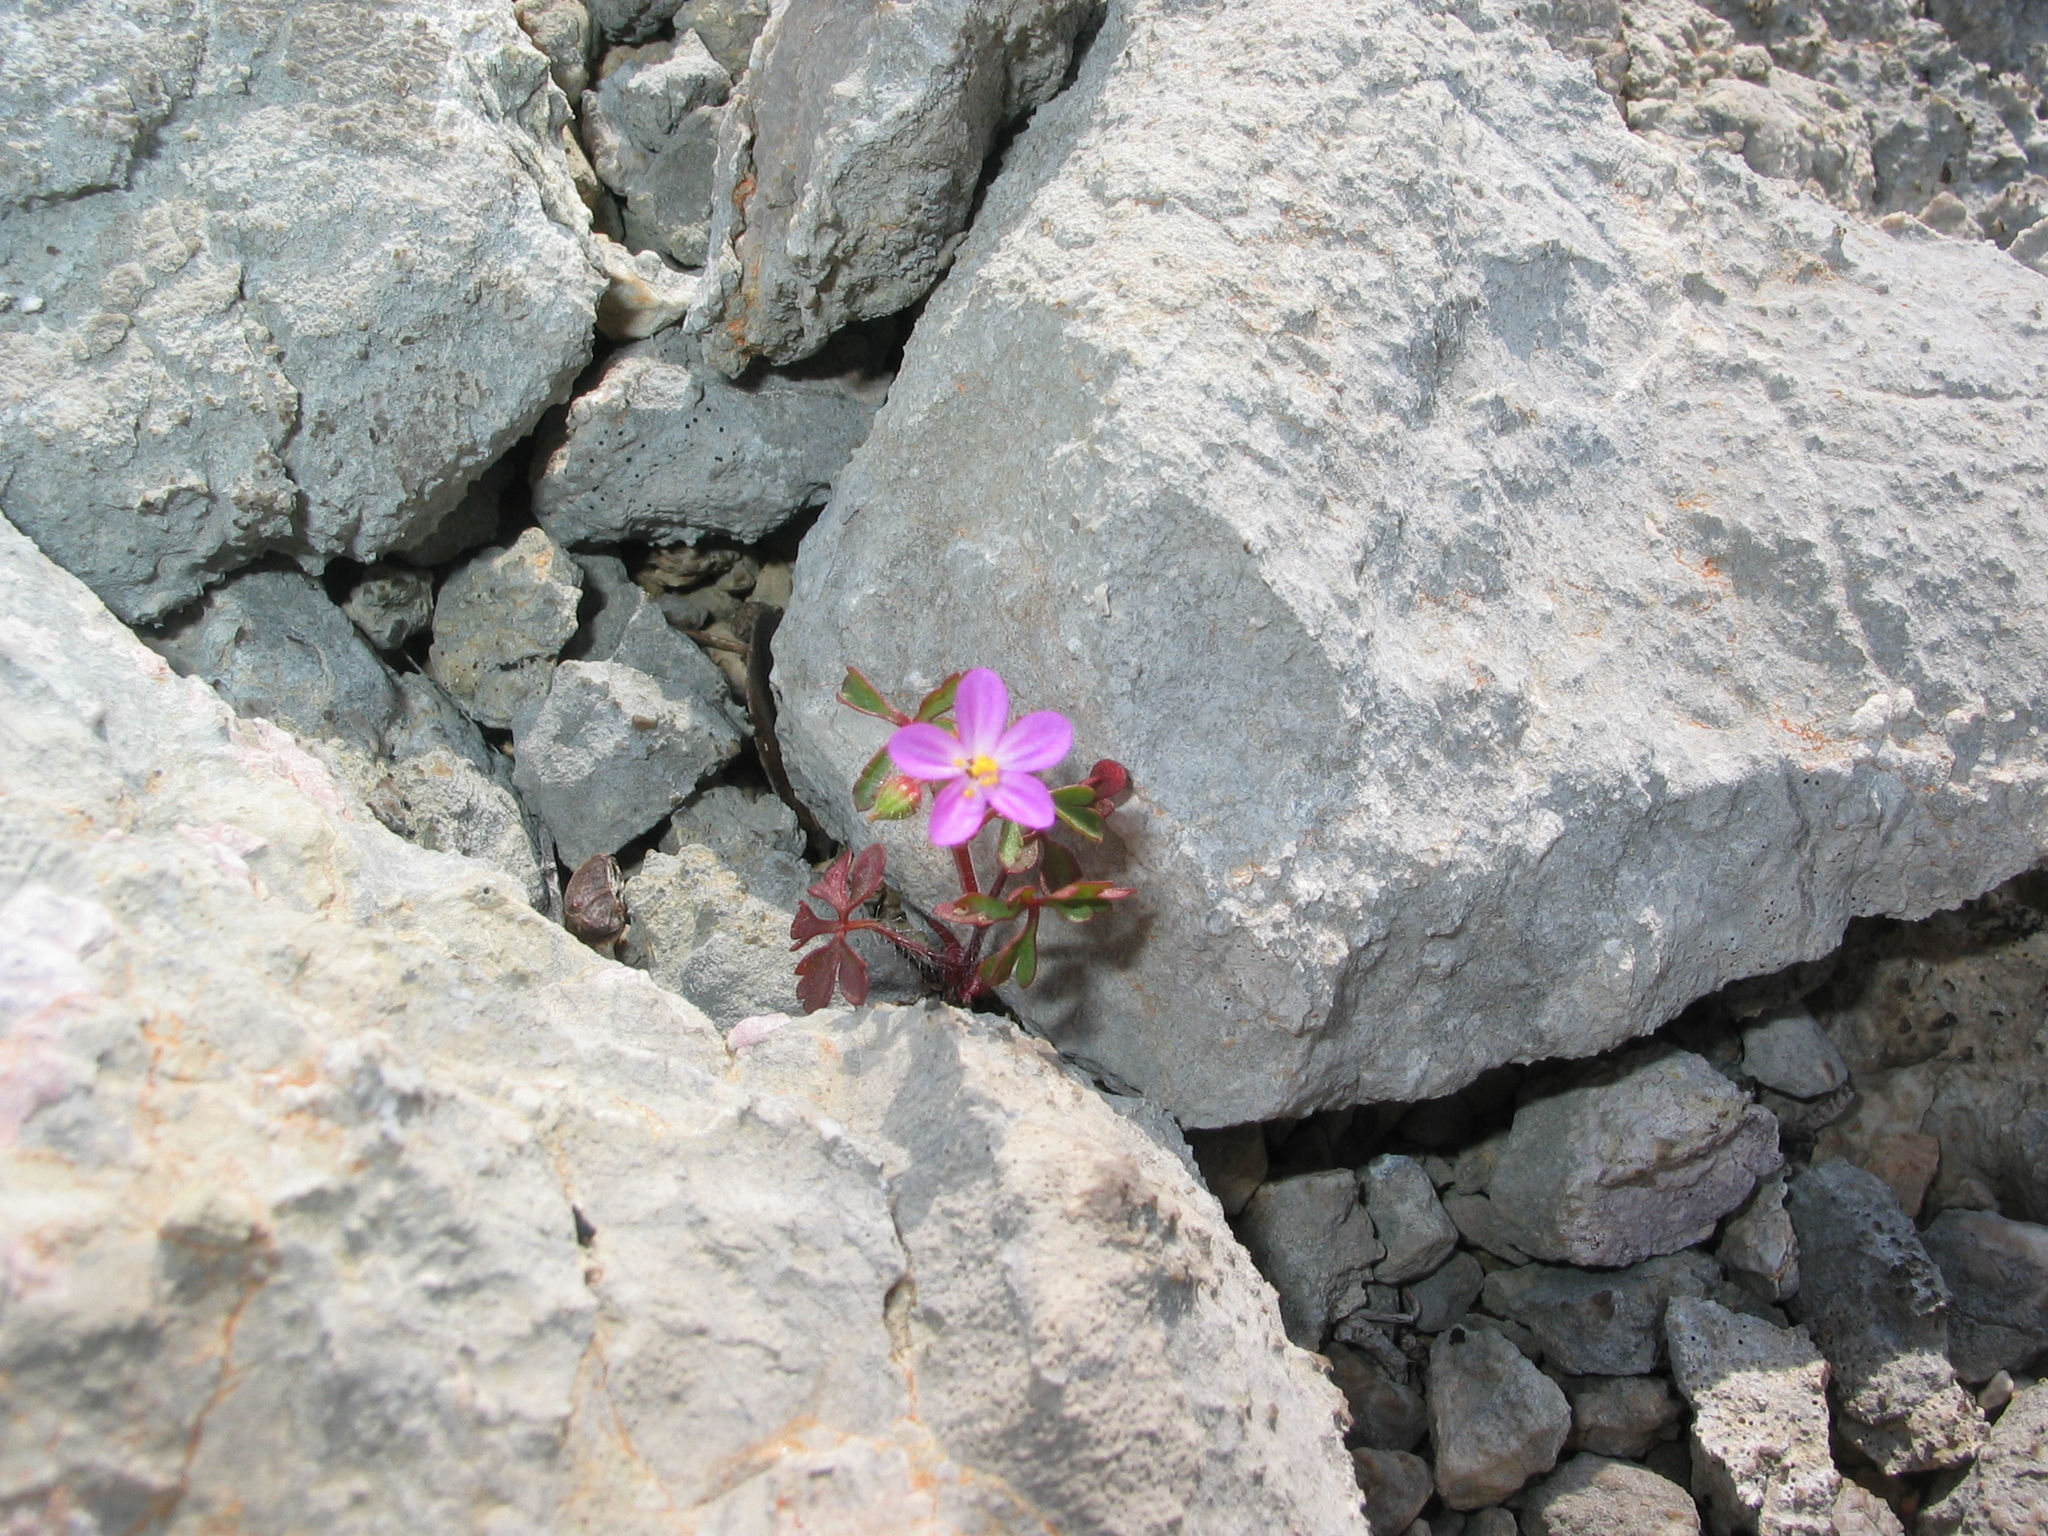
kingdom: Plantae
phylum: Tracheophyta
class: Magnoliopsida
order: Geraniales
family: Geraniaceae
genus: Geranium
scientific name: Geranium purpureum
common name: Little-robin
